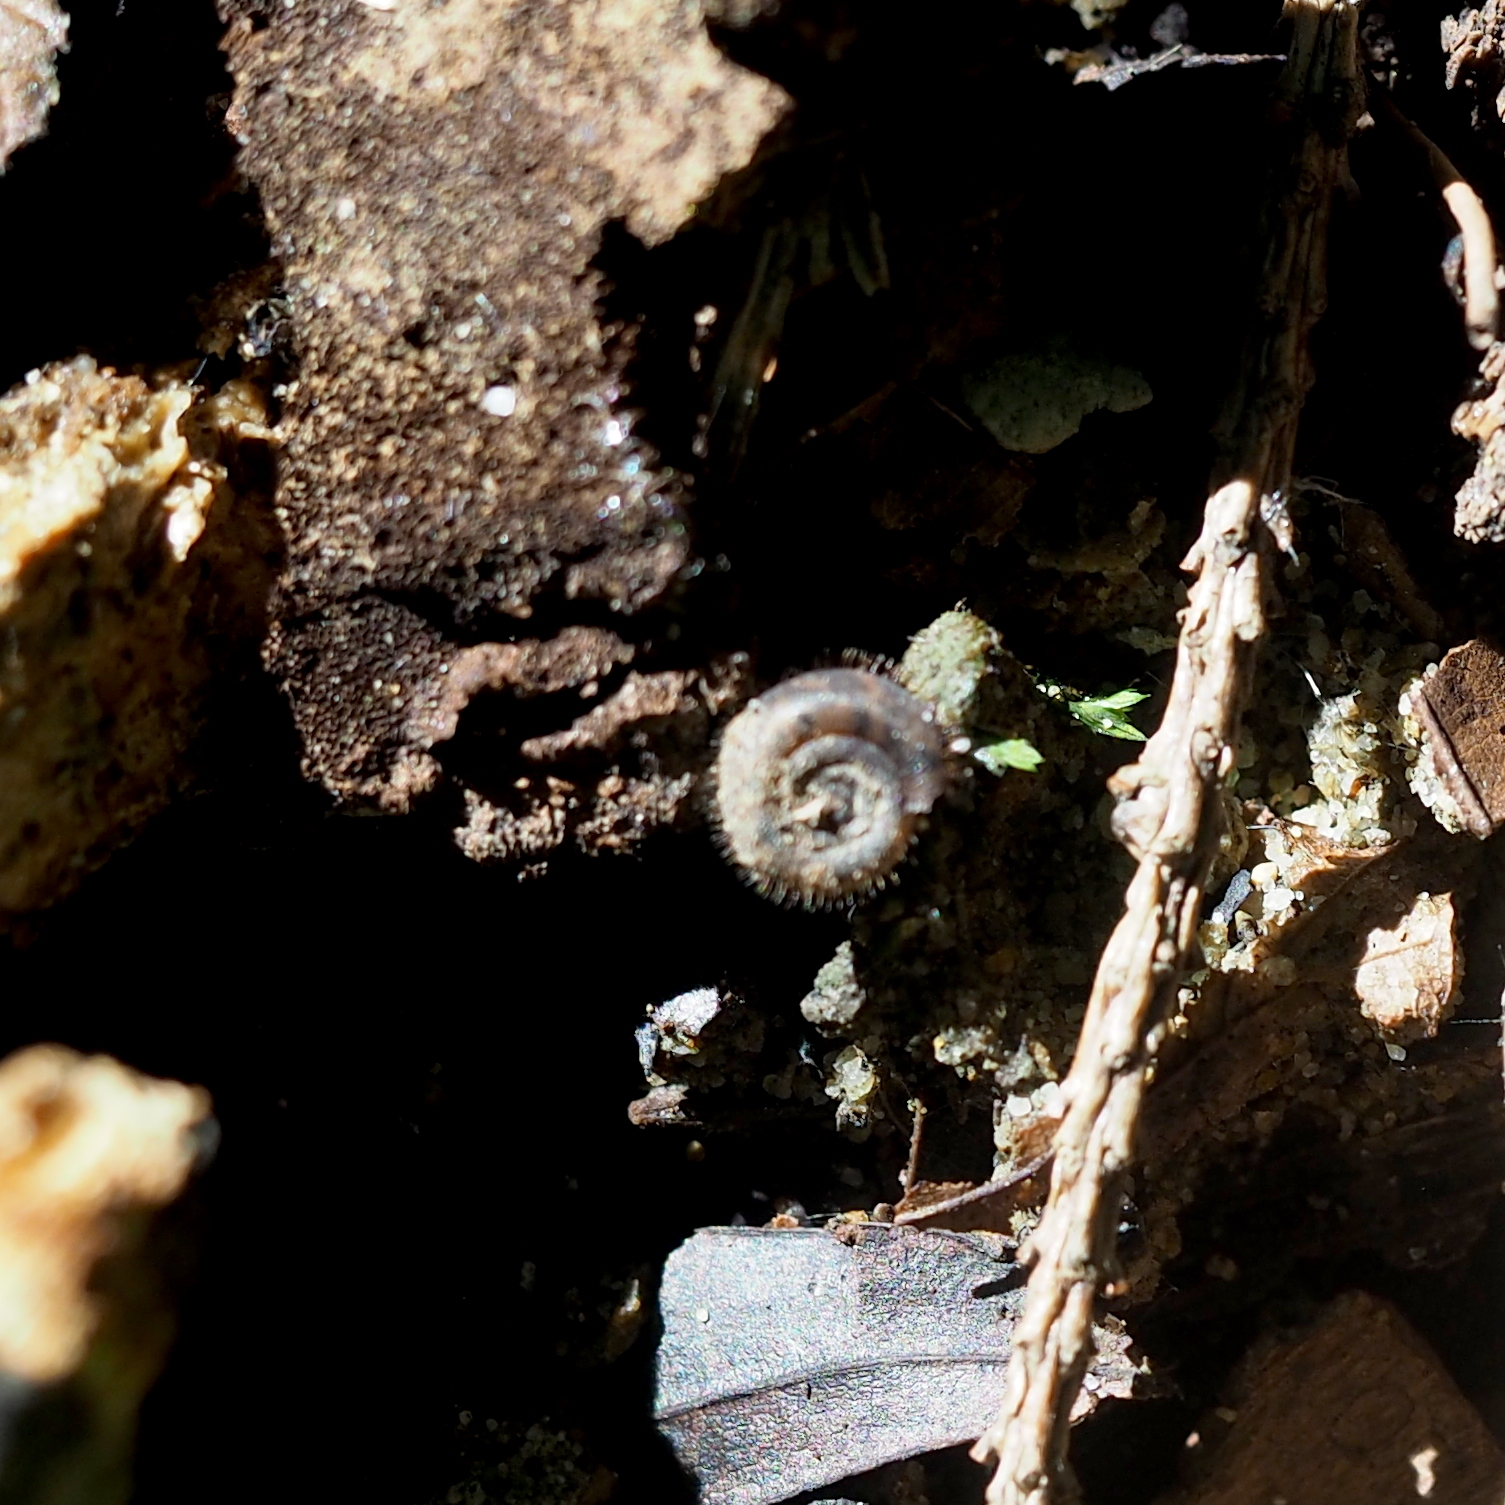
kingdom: Animalia
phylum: Mollusca
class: Gastropoda
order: Stylommatophora
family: Helicodontidae
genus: Helicodonta
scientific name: Helicodonta obvoluta
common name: Cheese snail
